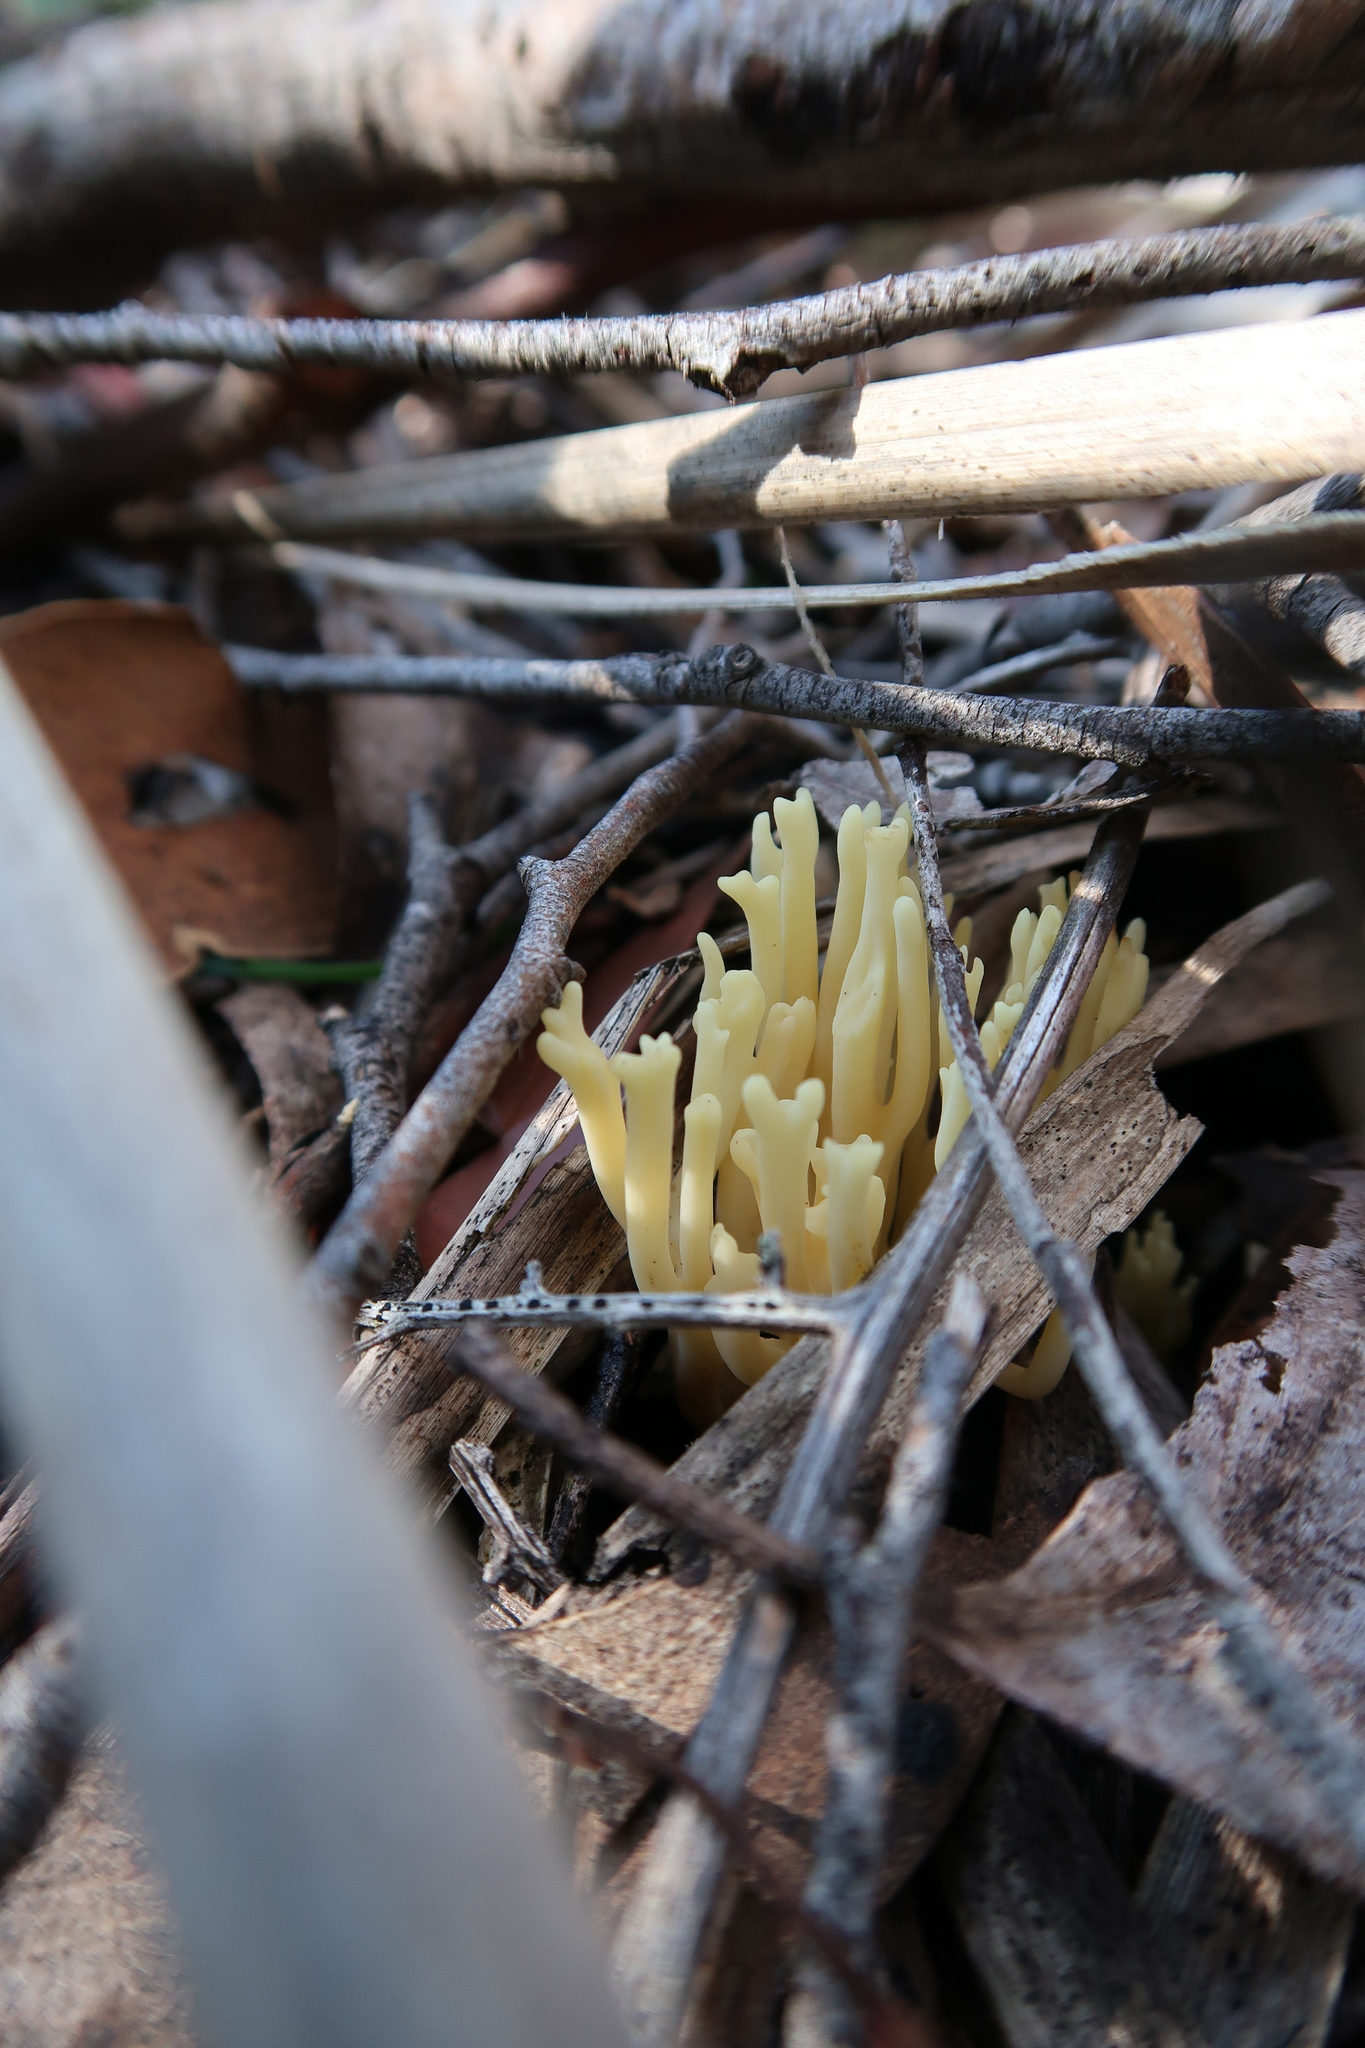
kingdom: Fungi
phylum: Basidiomycota
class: Agaricomycetes
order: Gomphales
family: Gomphaceae
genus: Ramaria
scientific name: Ramaria lorithamnus
